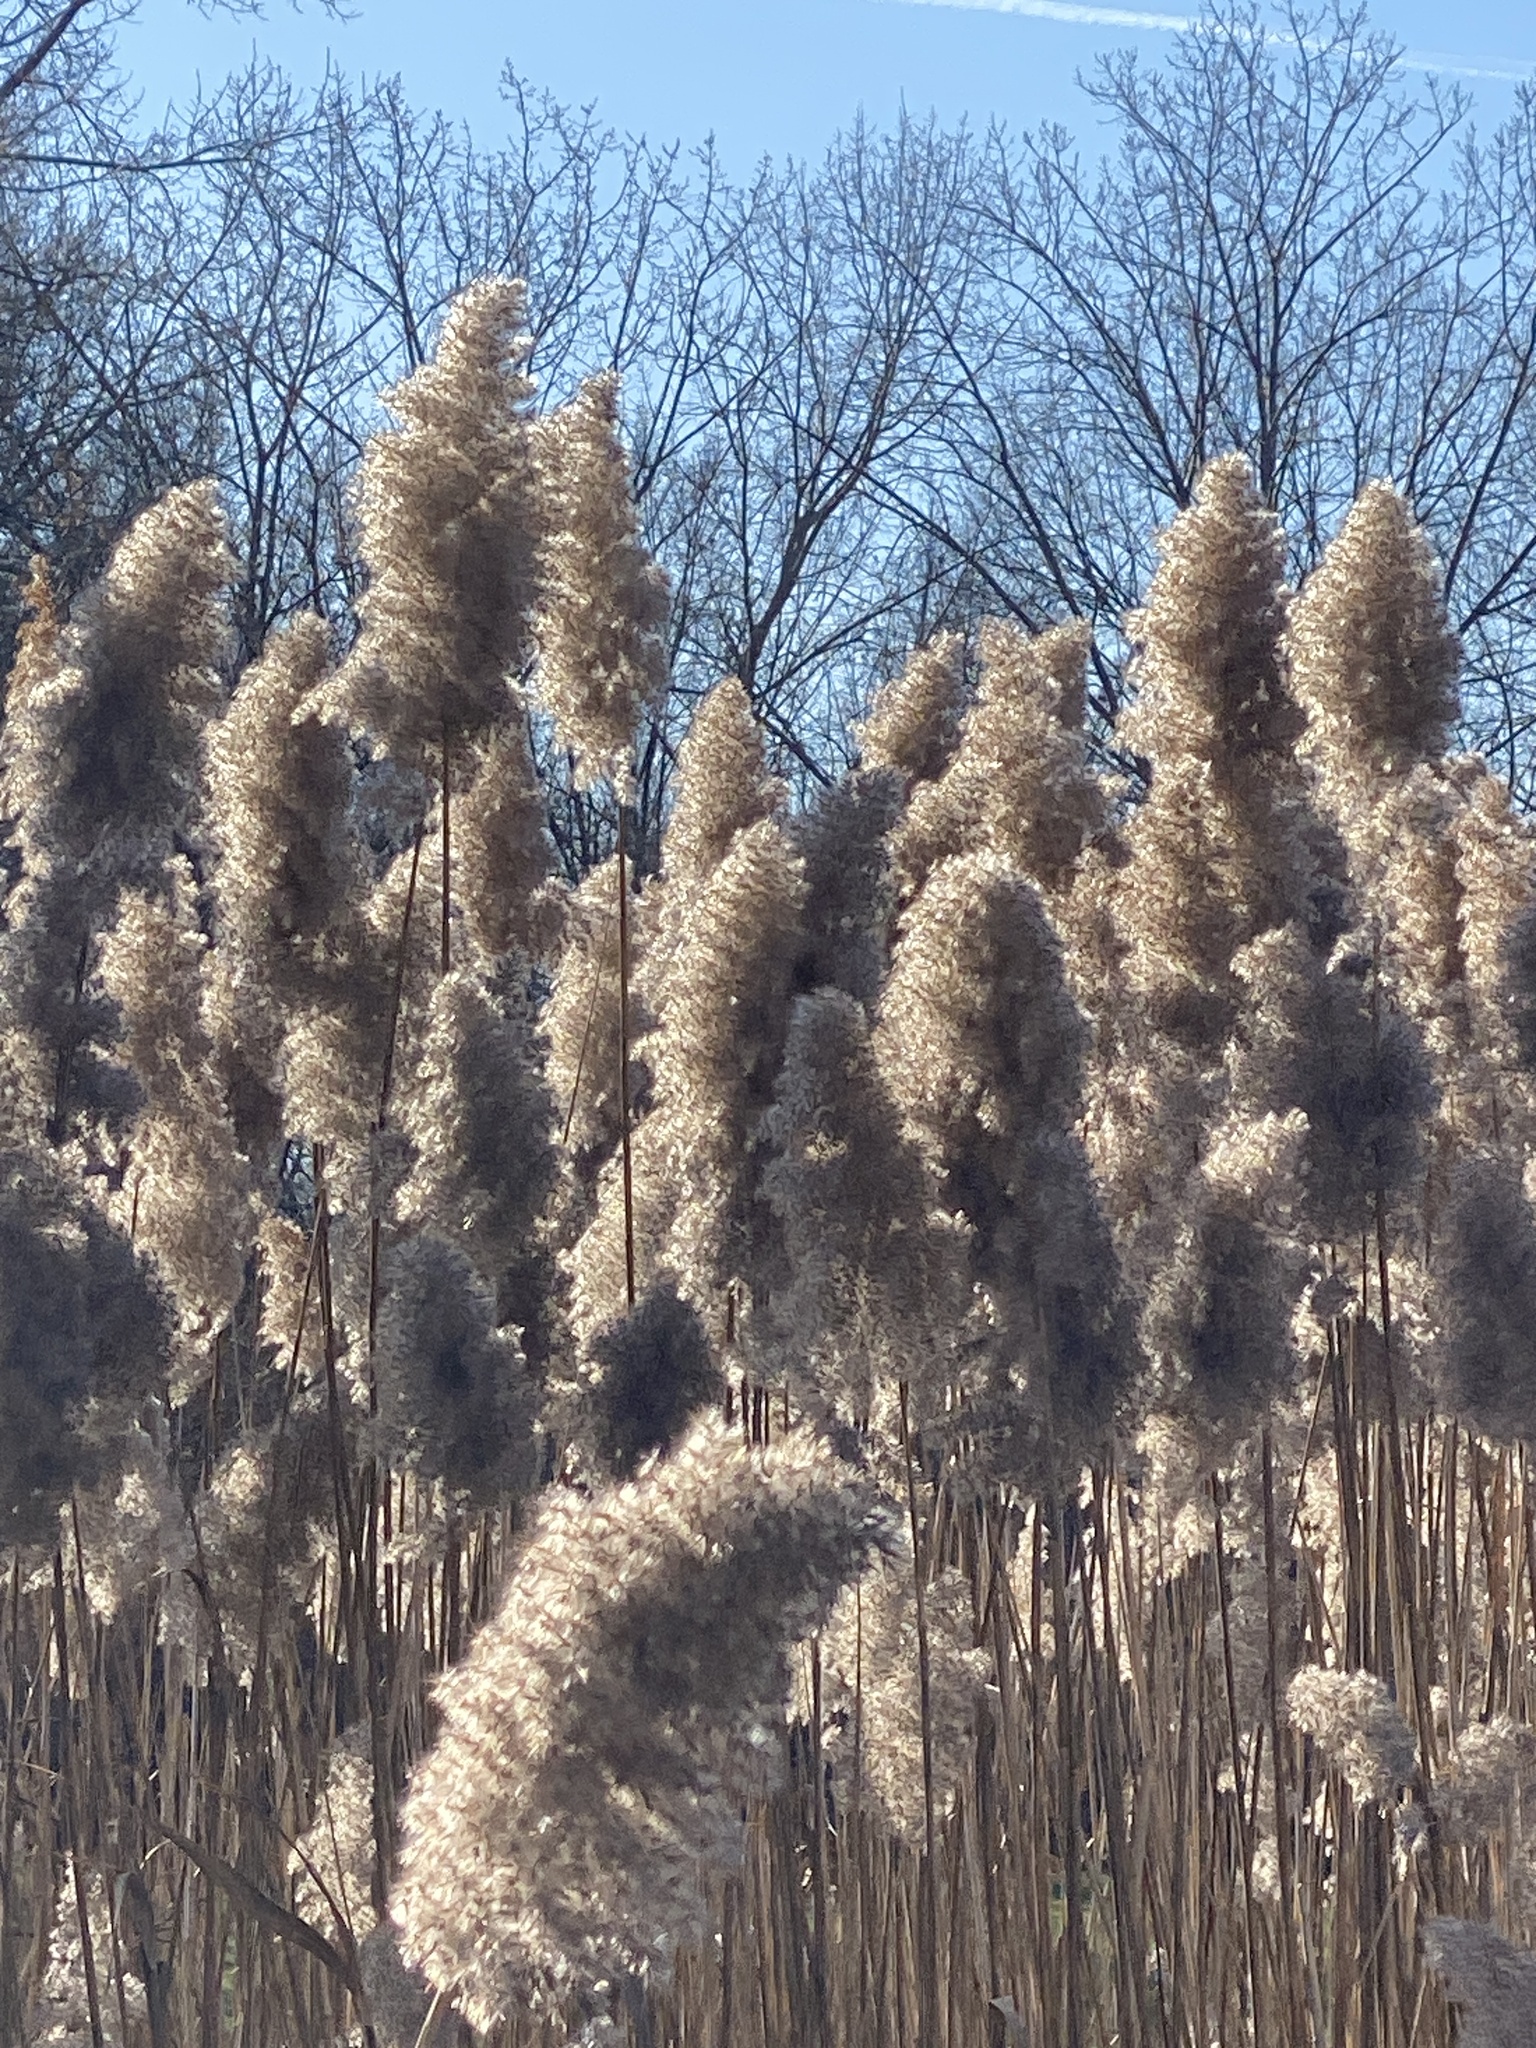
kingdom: Plantae
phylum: Tracheophyta
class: Liliopsida
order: Poales
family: Poaceae
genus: Phragmites
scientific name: Phragmites australis
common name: Common reed
